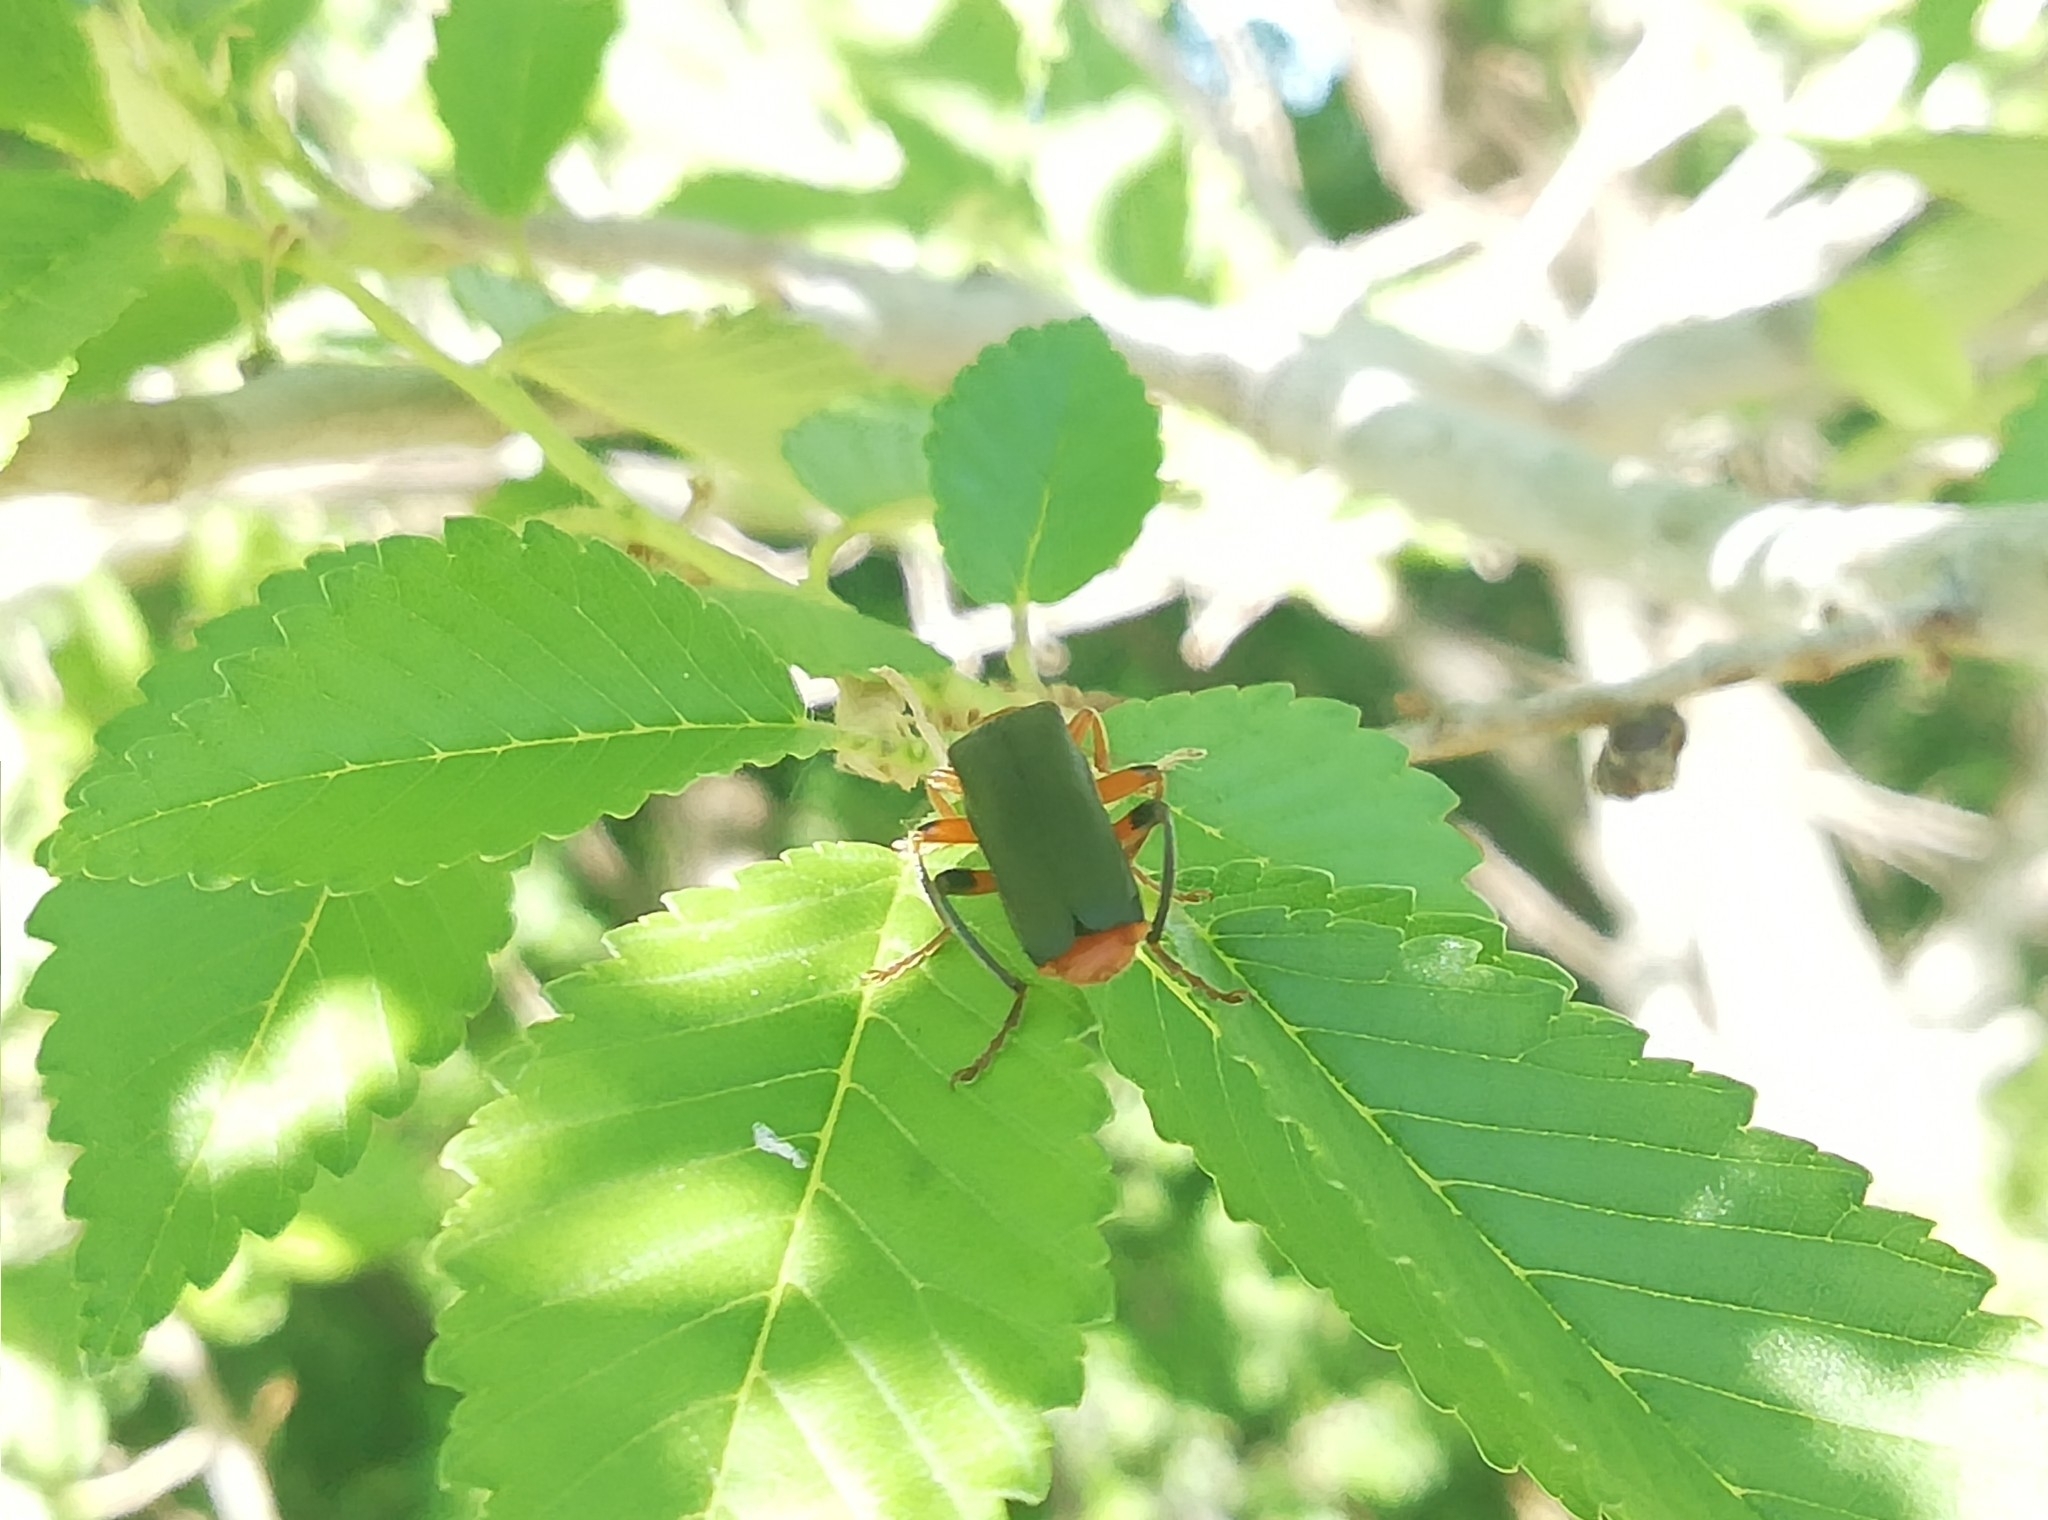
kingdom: Animalia
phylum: Arthropoda
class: Insecta
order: Coleoptera
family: Cantharidae
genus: Cantharis
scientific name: Cantharis livida
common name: Livid soldier beetle
